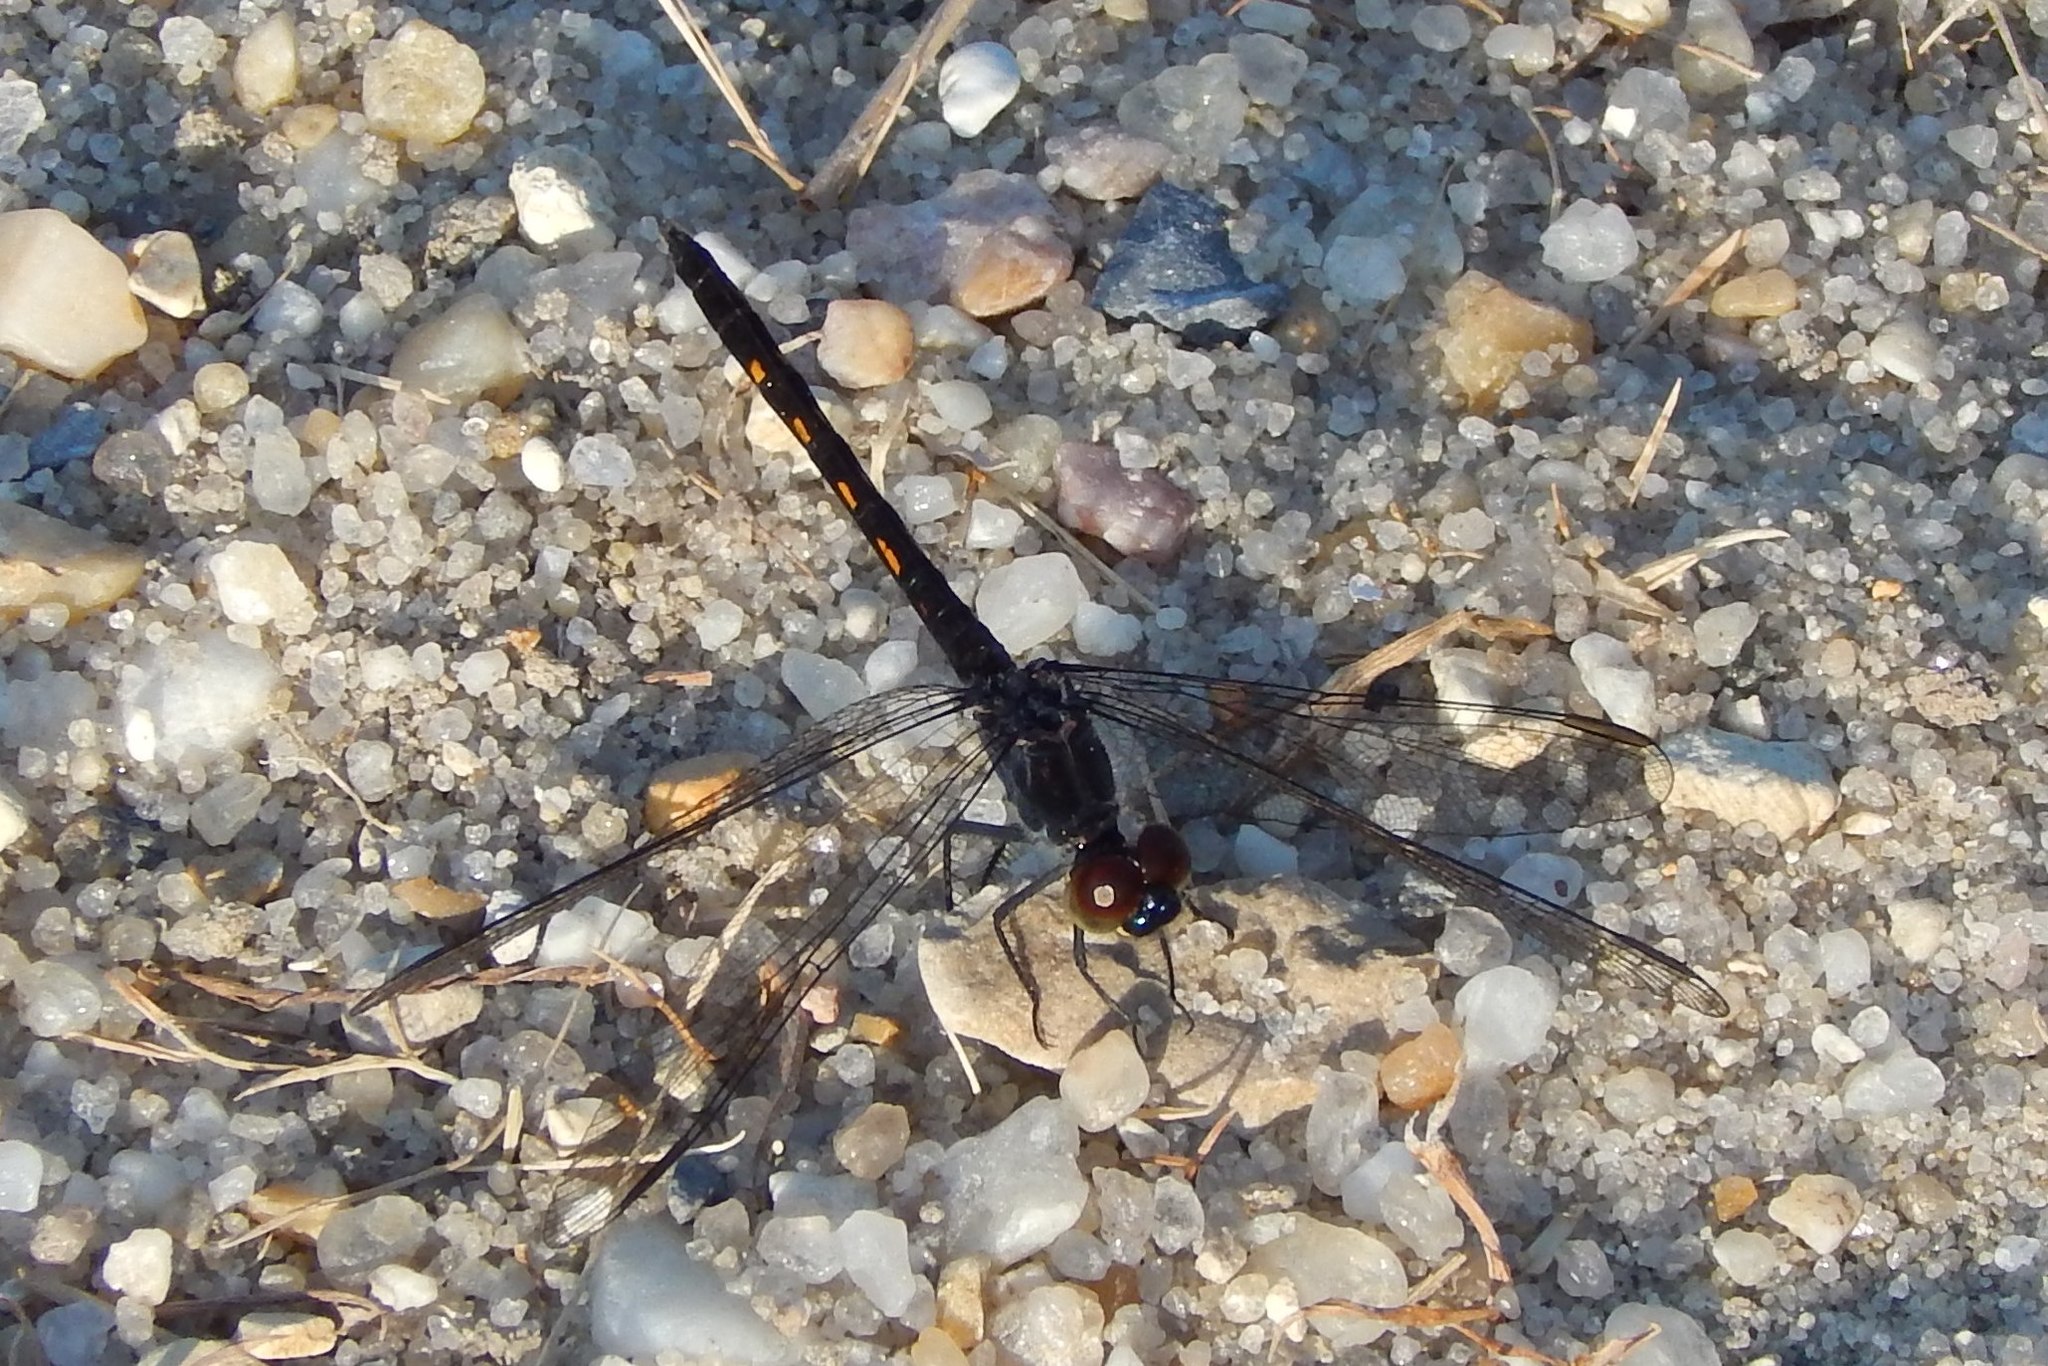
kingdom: Animalia
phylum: Arthropoda
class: Insecta
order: Odonata
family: Libellulidae
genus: Erythrodiplax
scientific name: Erythrodiplax berenice
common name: Seaside dragonlet
